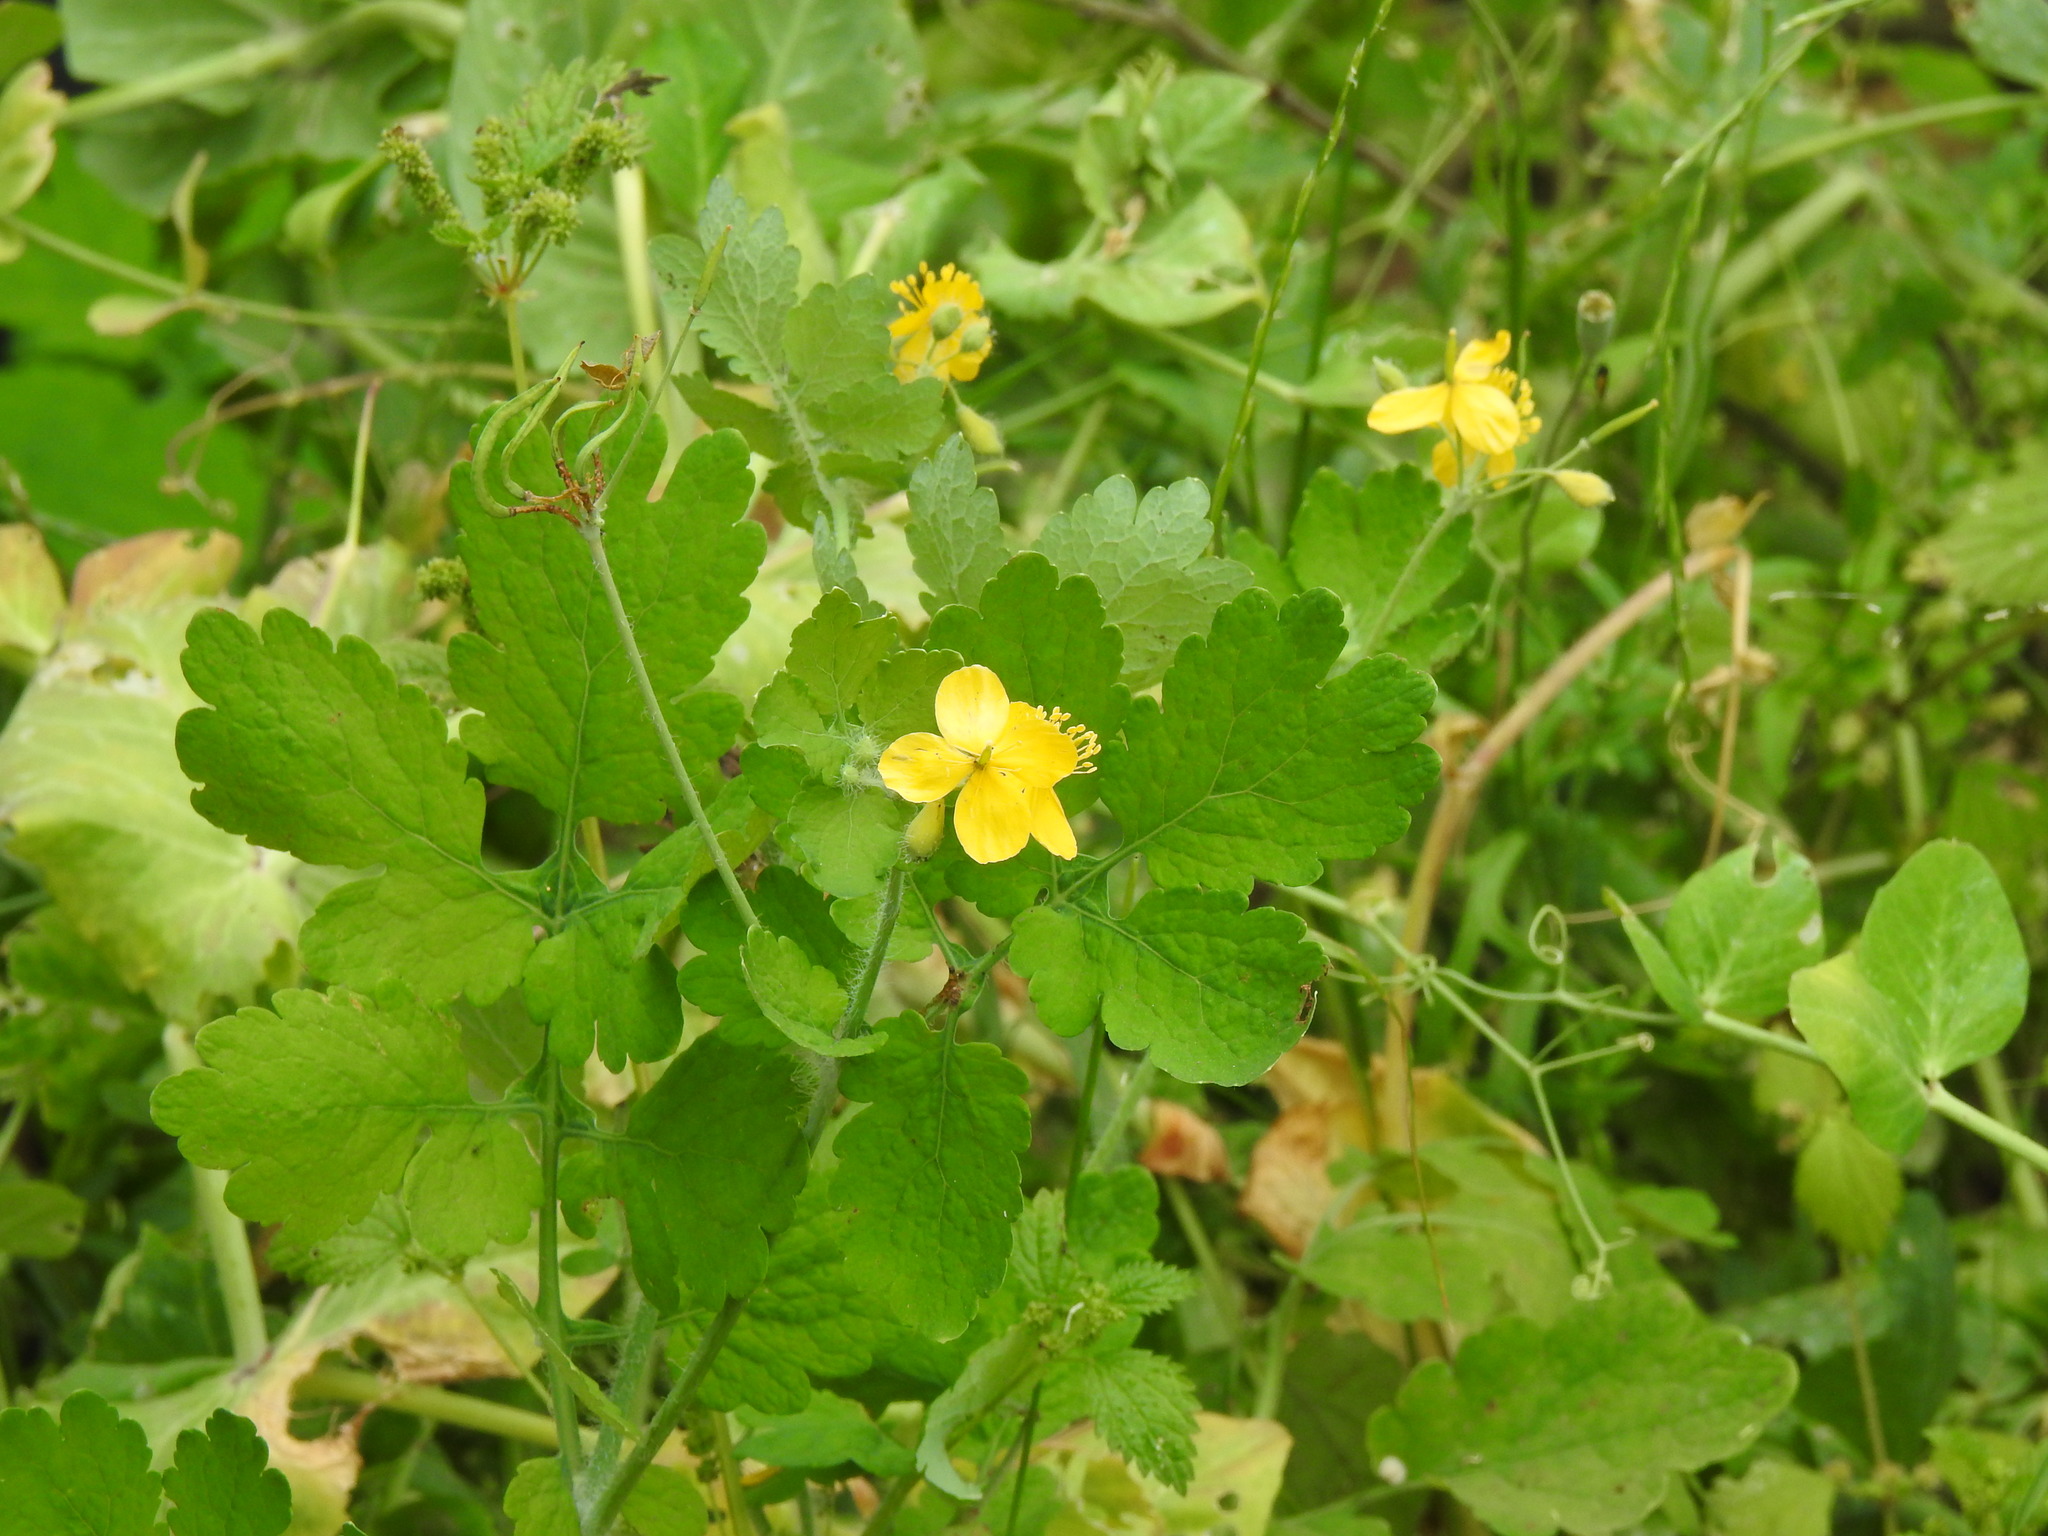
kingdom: Plantae
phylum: Tracheophyta
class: Magnoliopsida
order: Ranunculales
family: Papaveraceae
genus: Chelidonium
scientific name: Chelidonium majus
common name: Greater celandine
